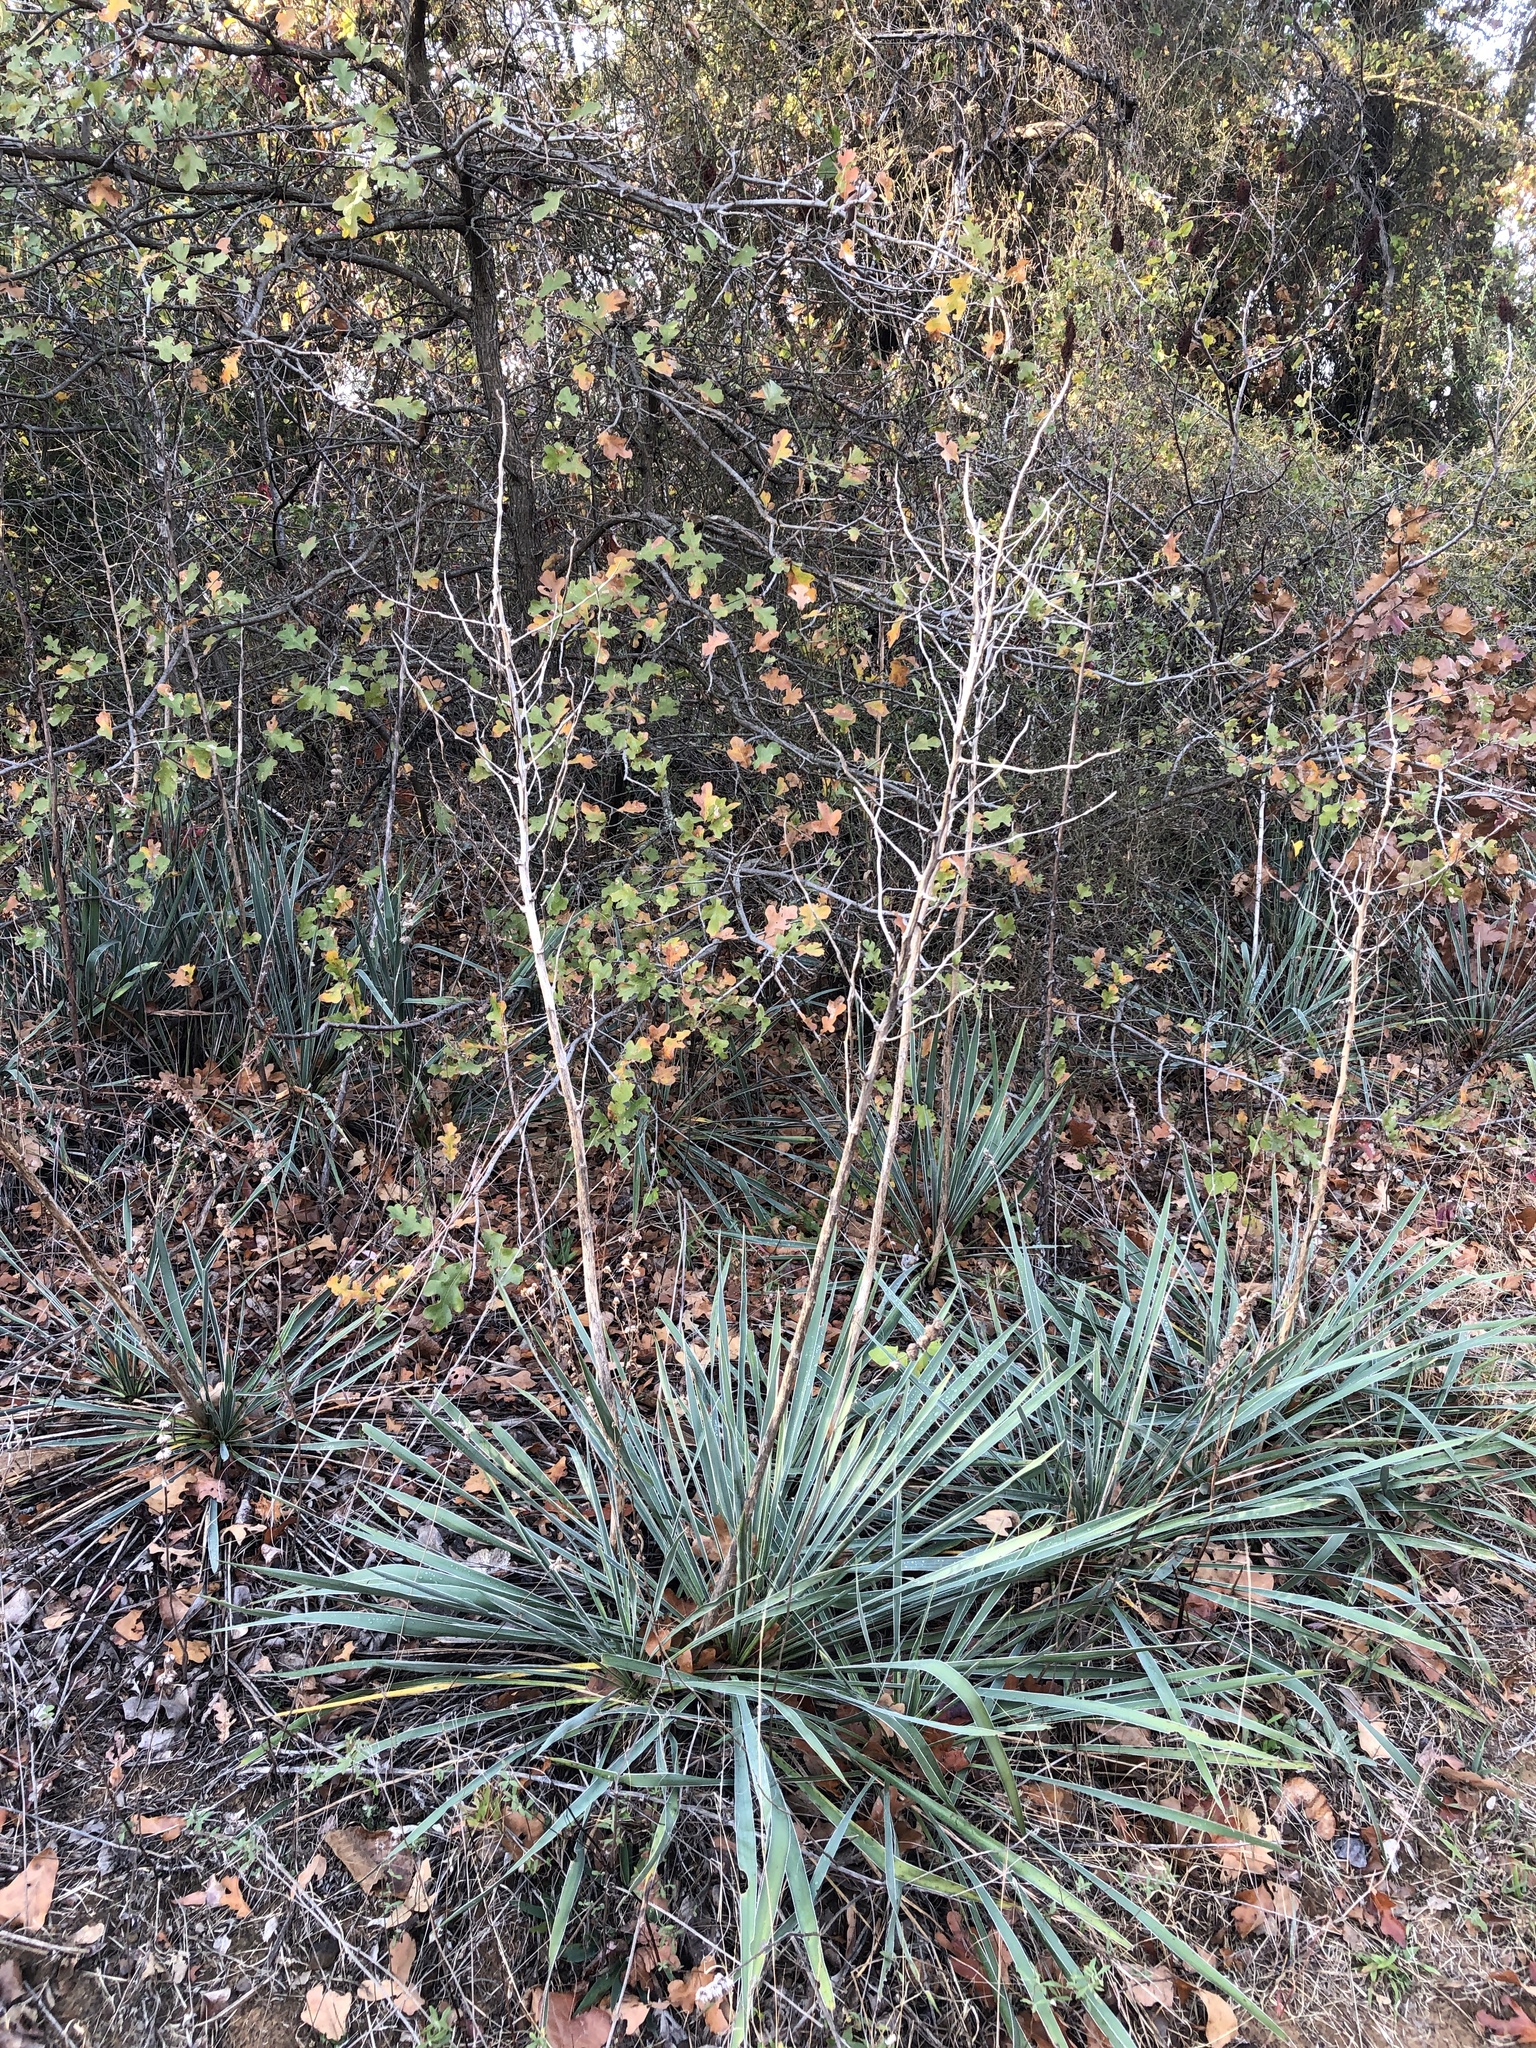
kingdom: Plantae
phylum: Tracheophyta
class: Liliopsida
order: Asparagales
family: Asparagaceae
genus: Yucca
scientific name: Yucca necopina
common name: Glen rose yucca
